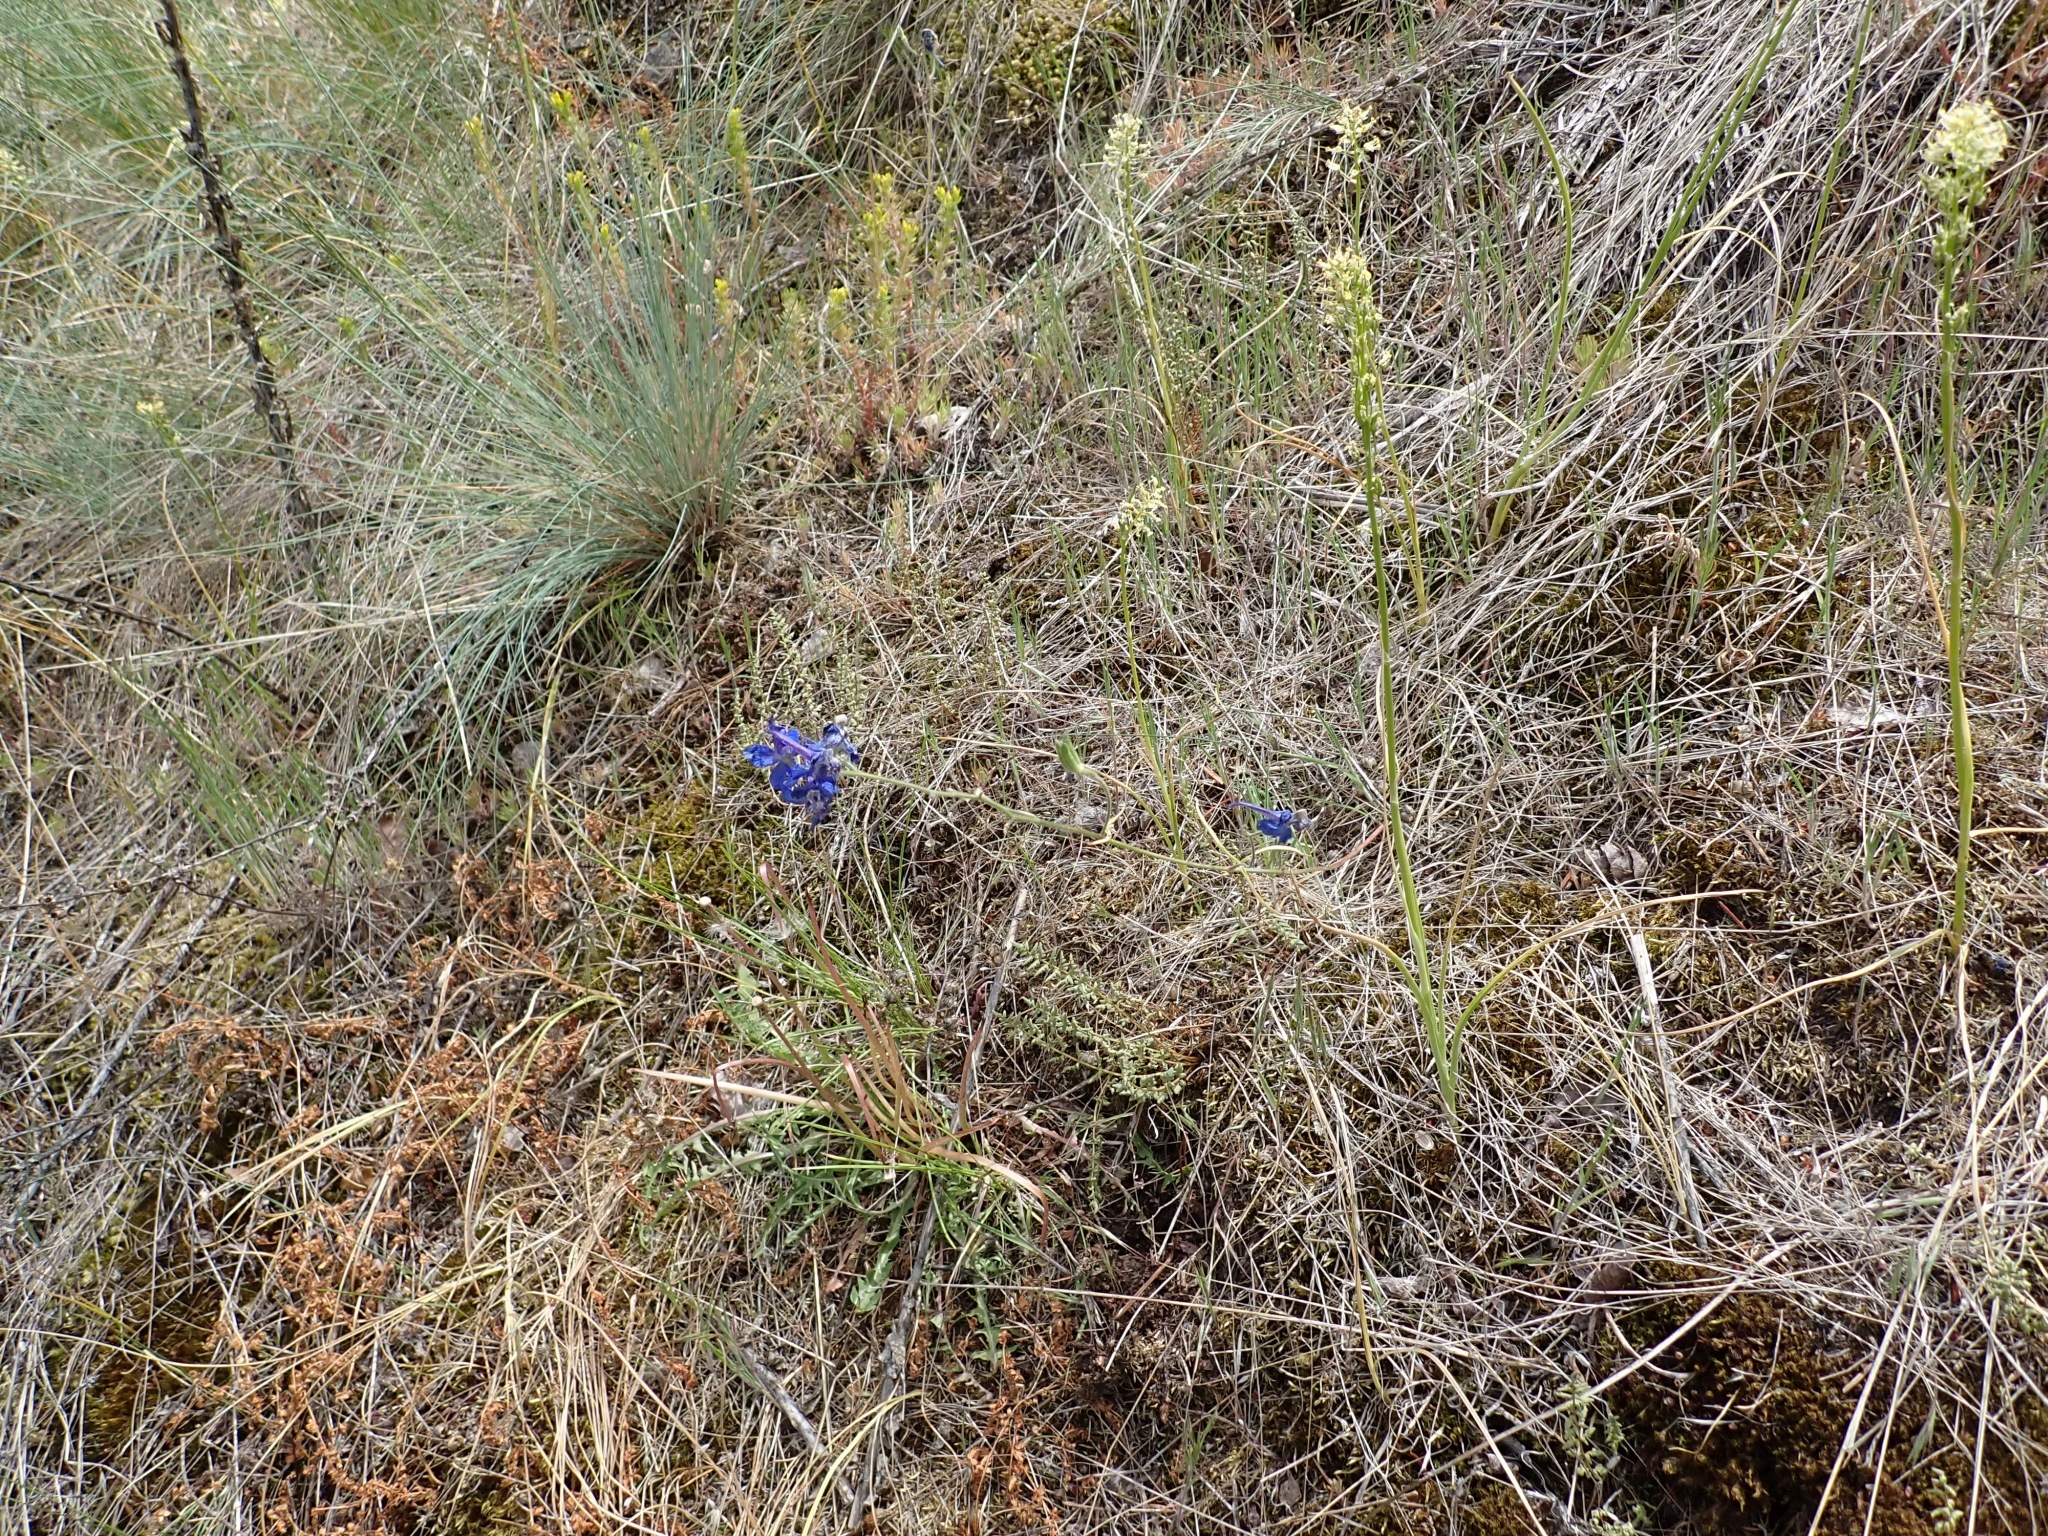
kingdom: Plantae
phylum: Tracheophyta
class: Magnoliopsida
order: Ranunculales
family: Ranunculaceae
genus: Delphinium
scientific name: Delphinium nuttallianum
